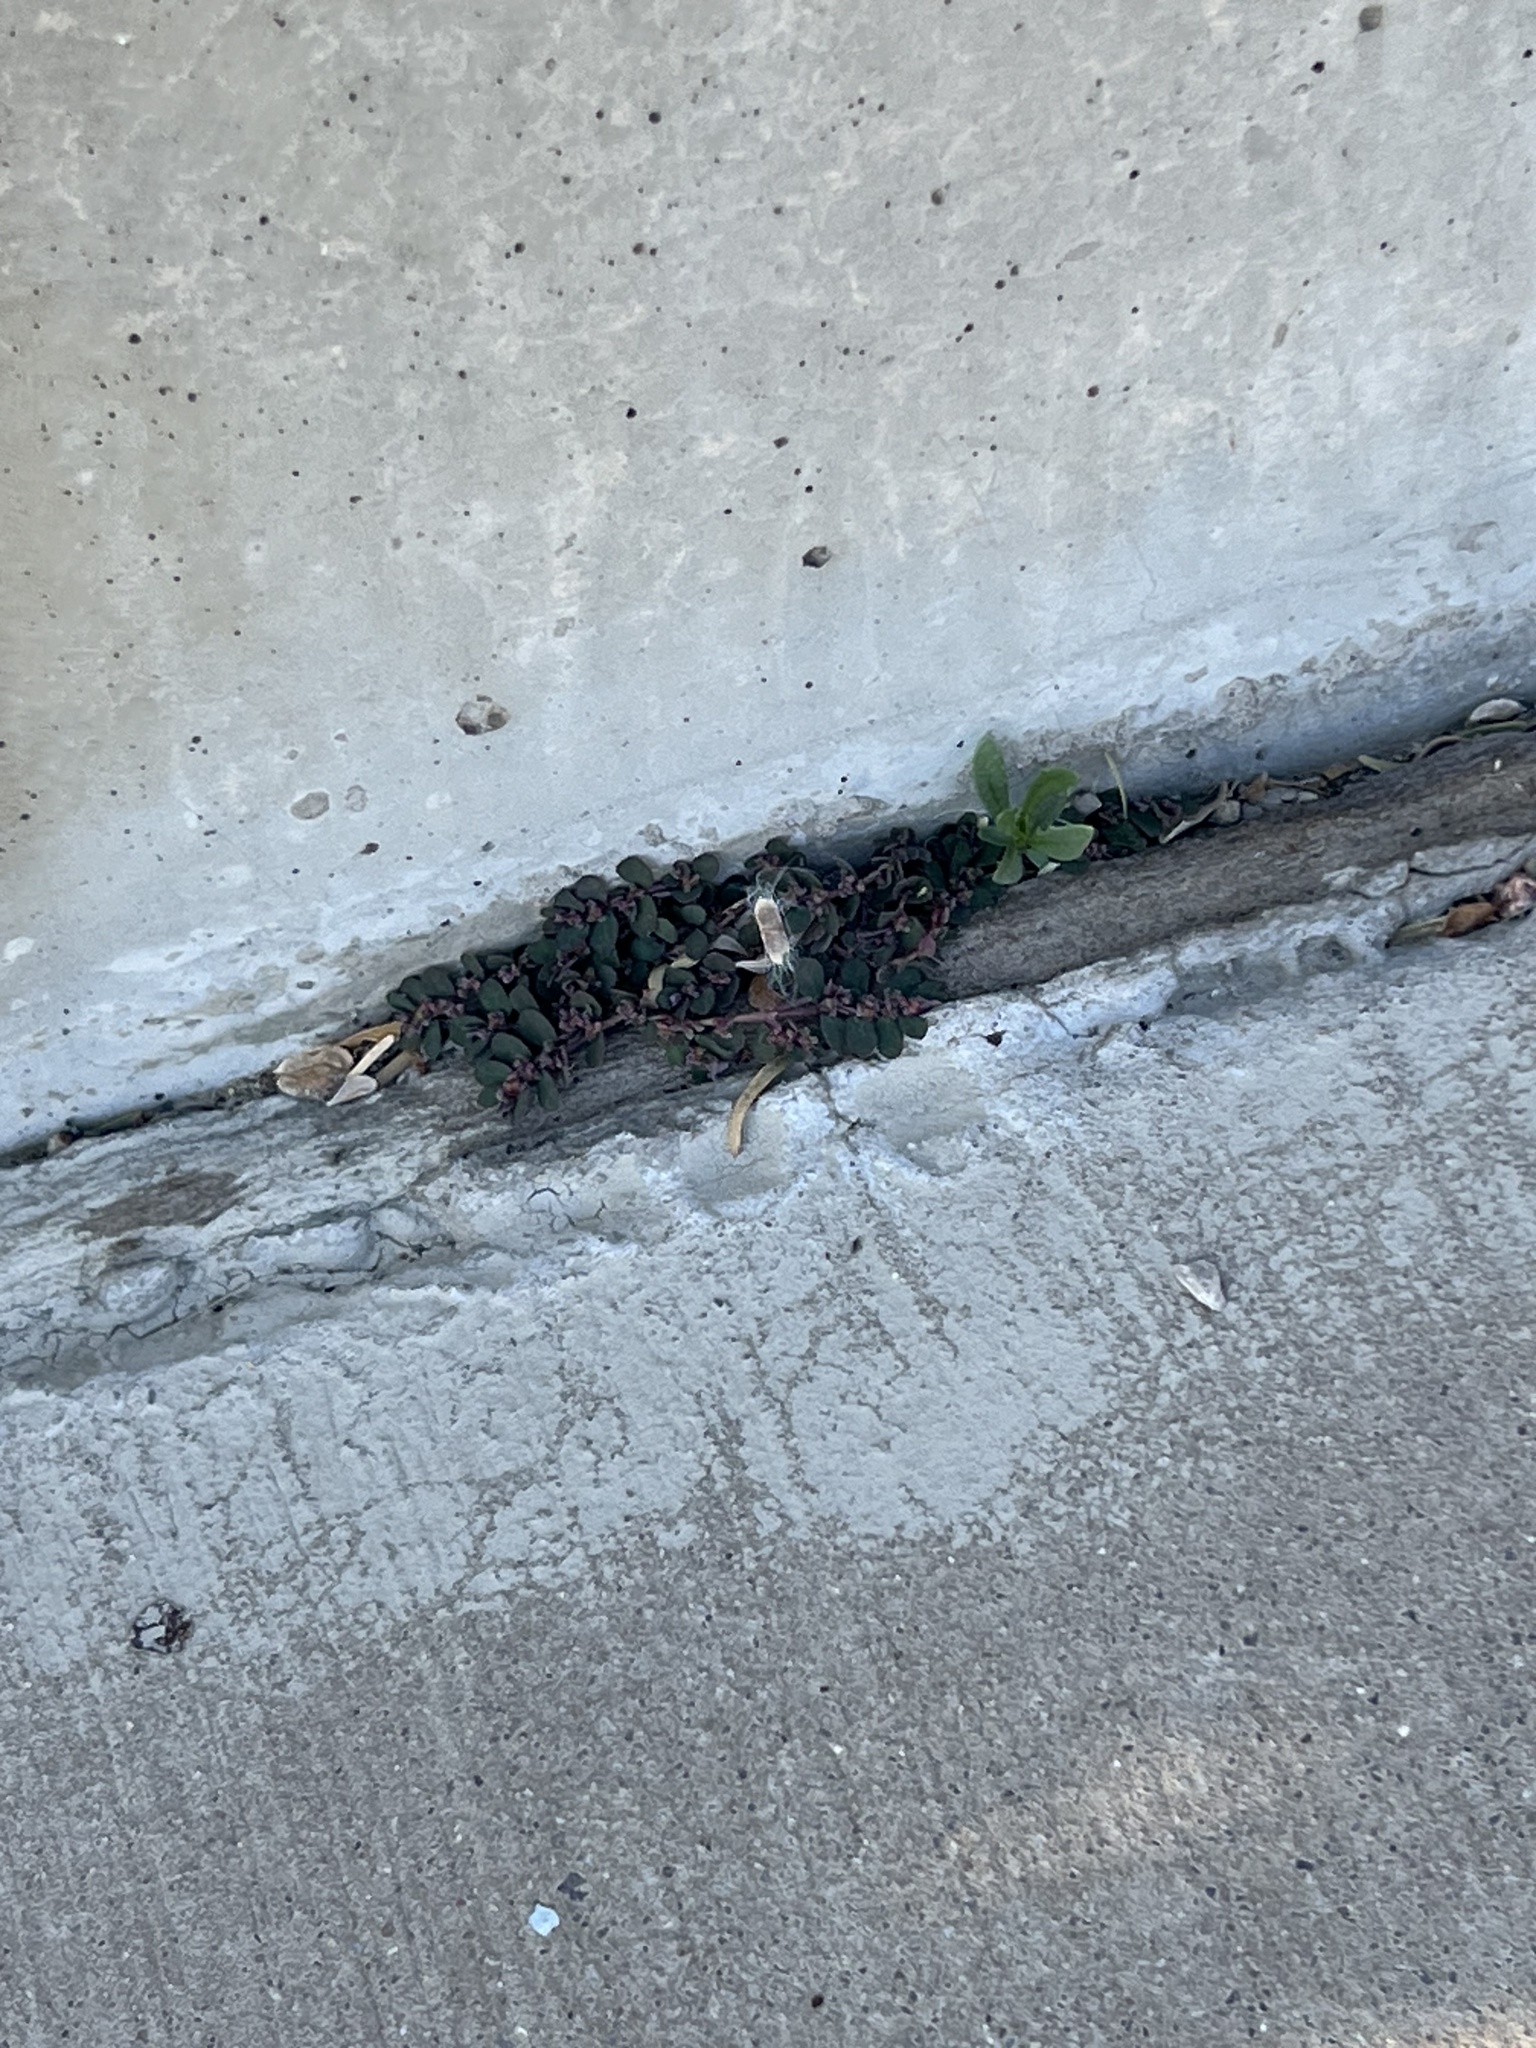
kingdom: Plantae
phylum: Tracheophyta
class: Magnoliopsida
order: Malpighiales
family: Euphorbiaceae
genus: Euphorbia
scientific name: Euphorbia prostrata
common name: Prostrate sandmat
